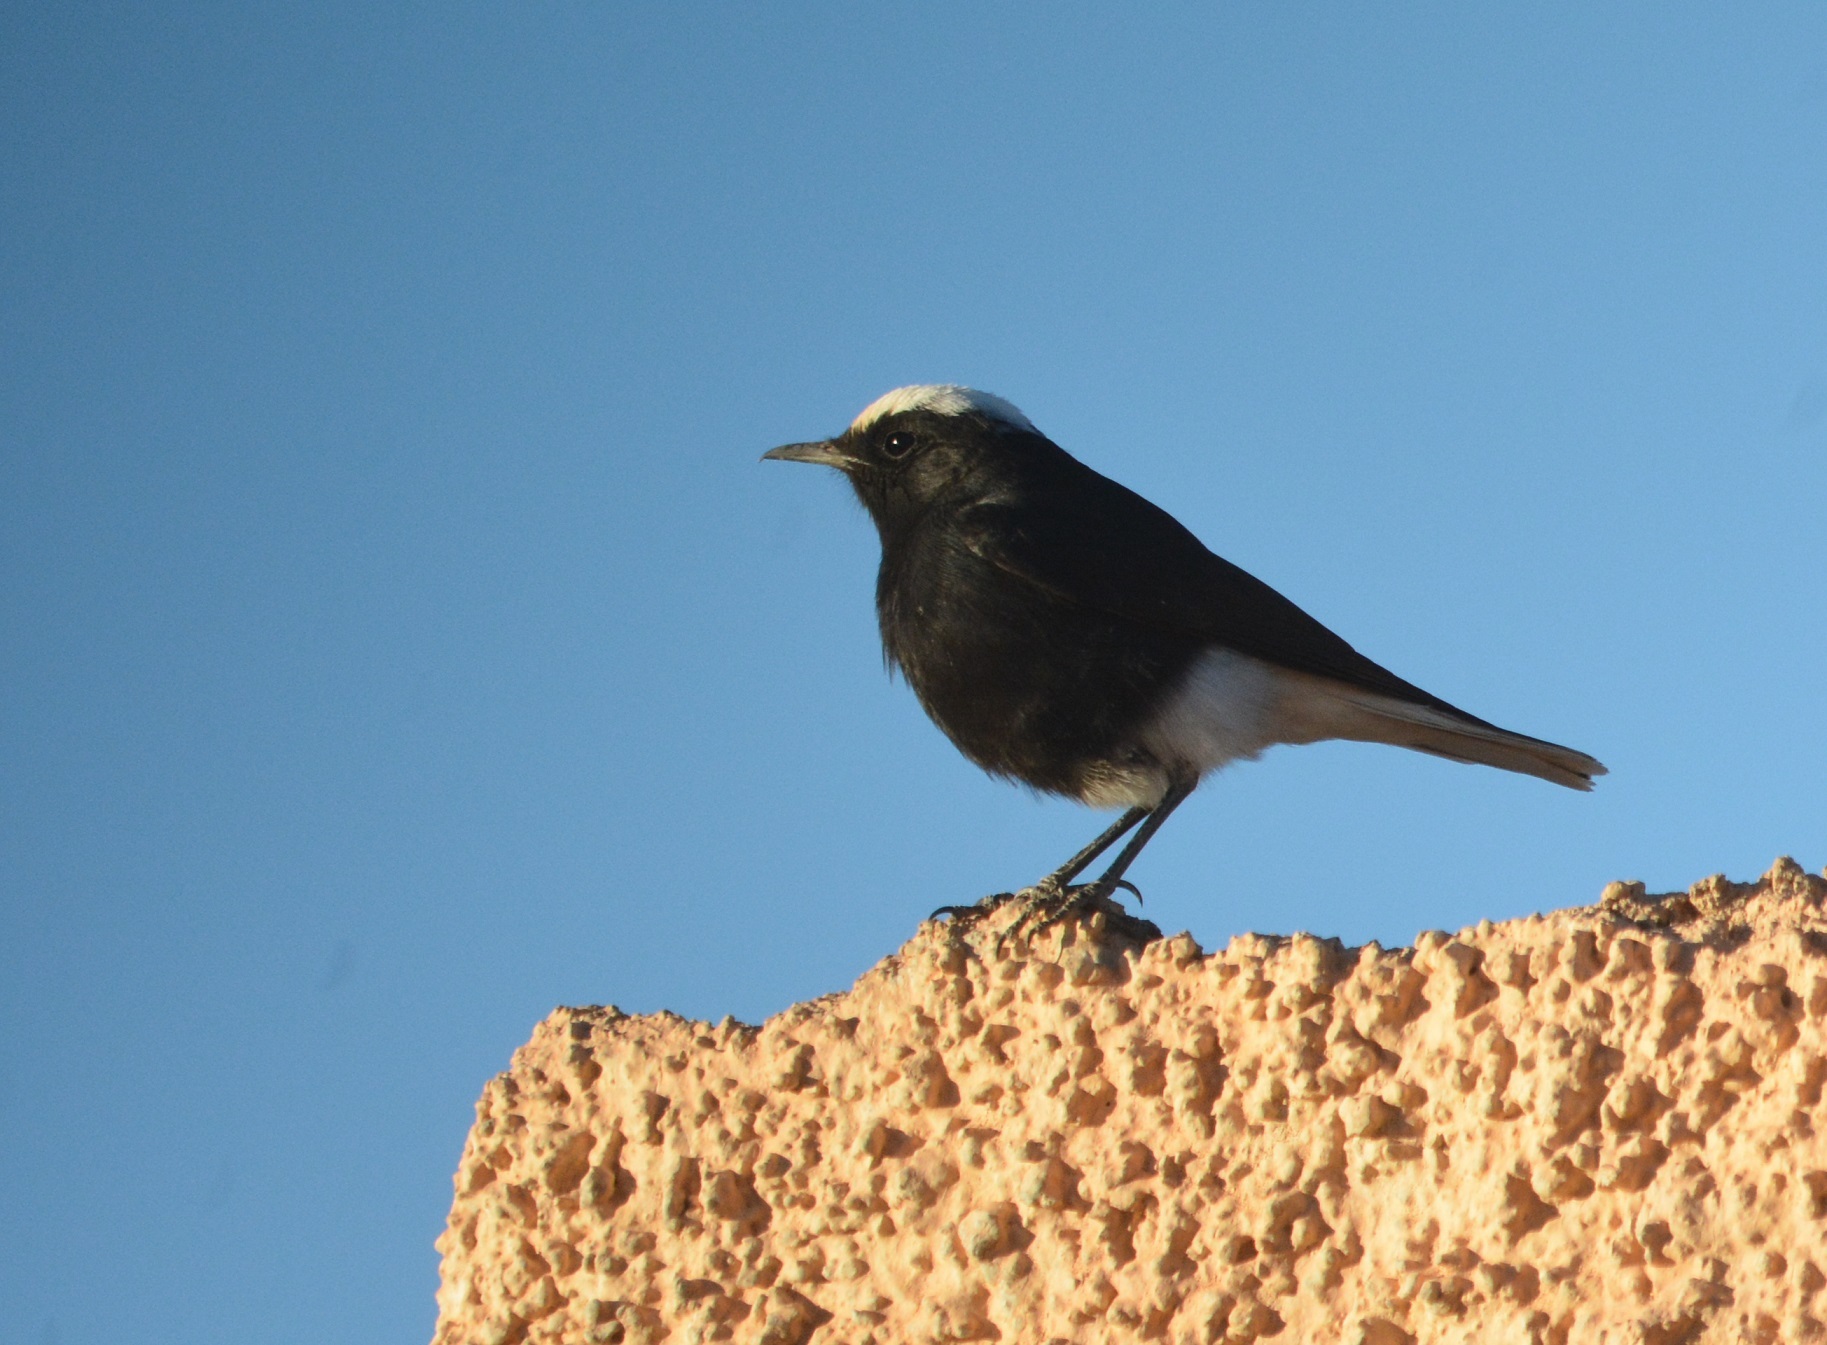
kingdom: Animalia
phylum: Chordata
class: Aves
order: Passeriformes
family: Muscicapidae
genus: Oenanthe
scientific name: Oenanthe leucopyga
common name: White-crowned wheatear
